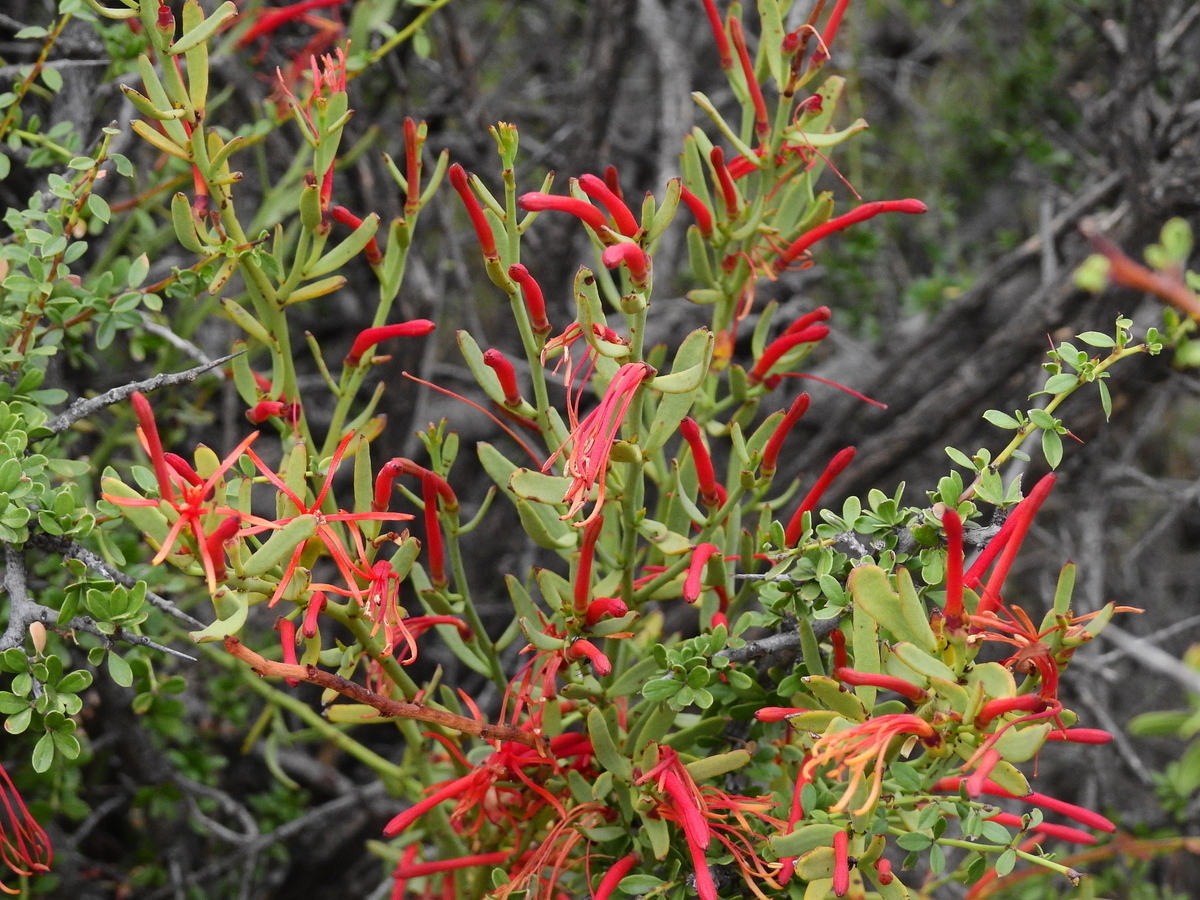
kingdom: Plantae
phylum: Tracheophyta
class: Magnoliopsida
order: Santalales
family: Loranthaceae
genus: Ligaria
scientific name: Ligaria cuneifolia
